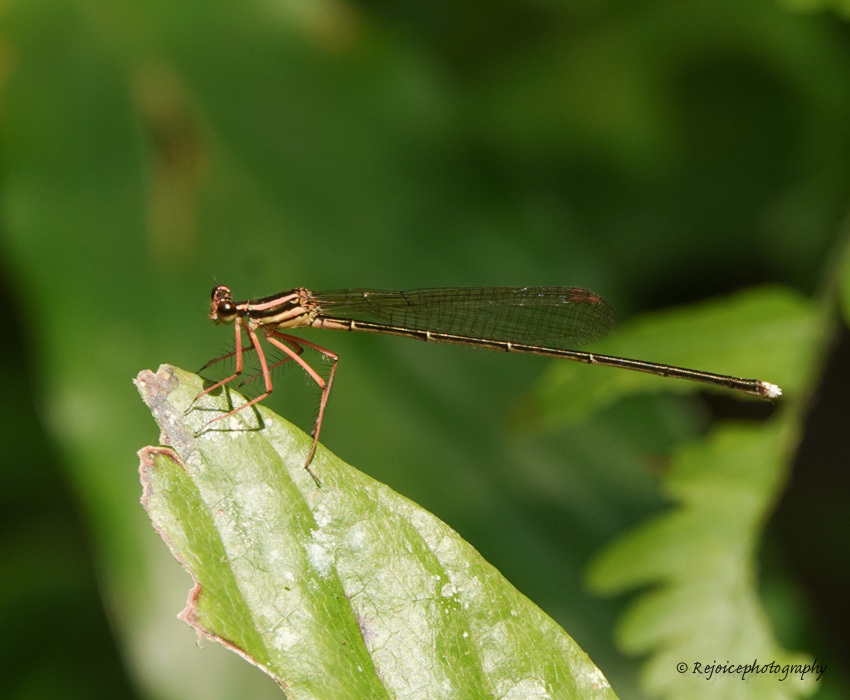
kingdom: Animalia
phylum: Arthropoda
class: Insecta
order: Odonata
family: Platycnemididae
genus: Pseudocopera
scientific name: Pseudocopera ciliata
